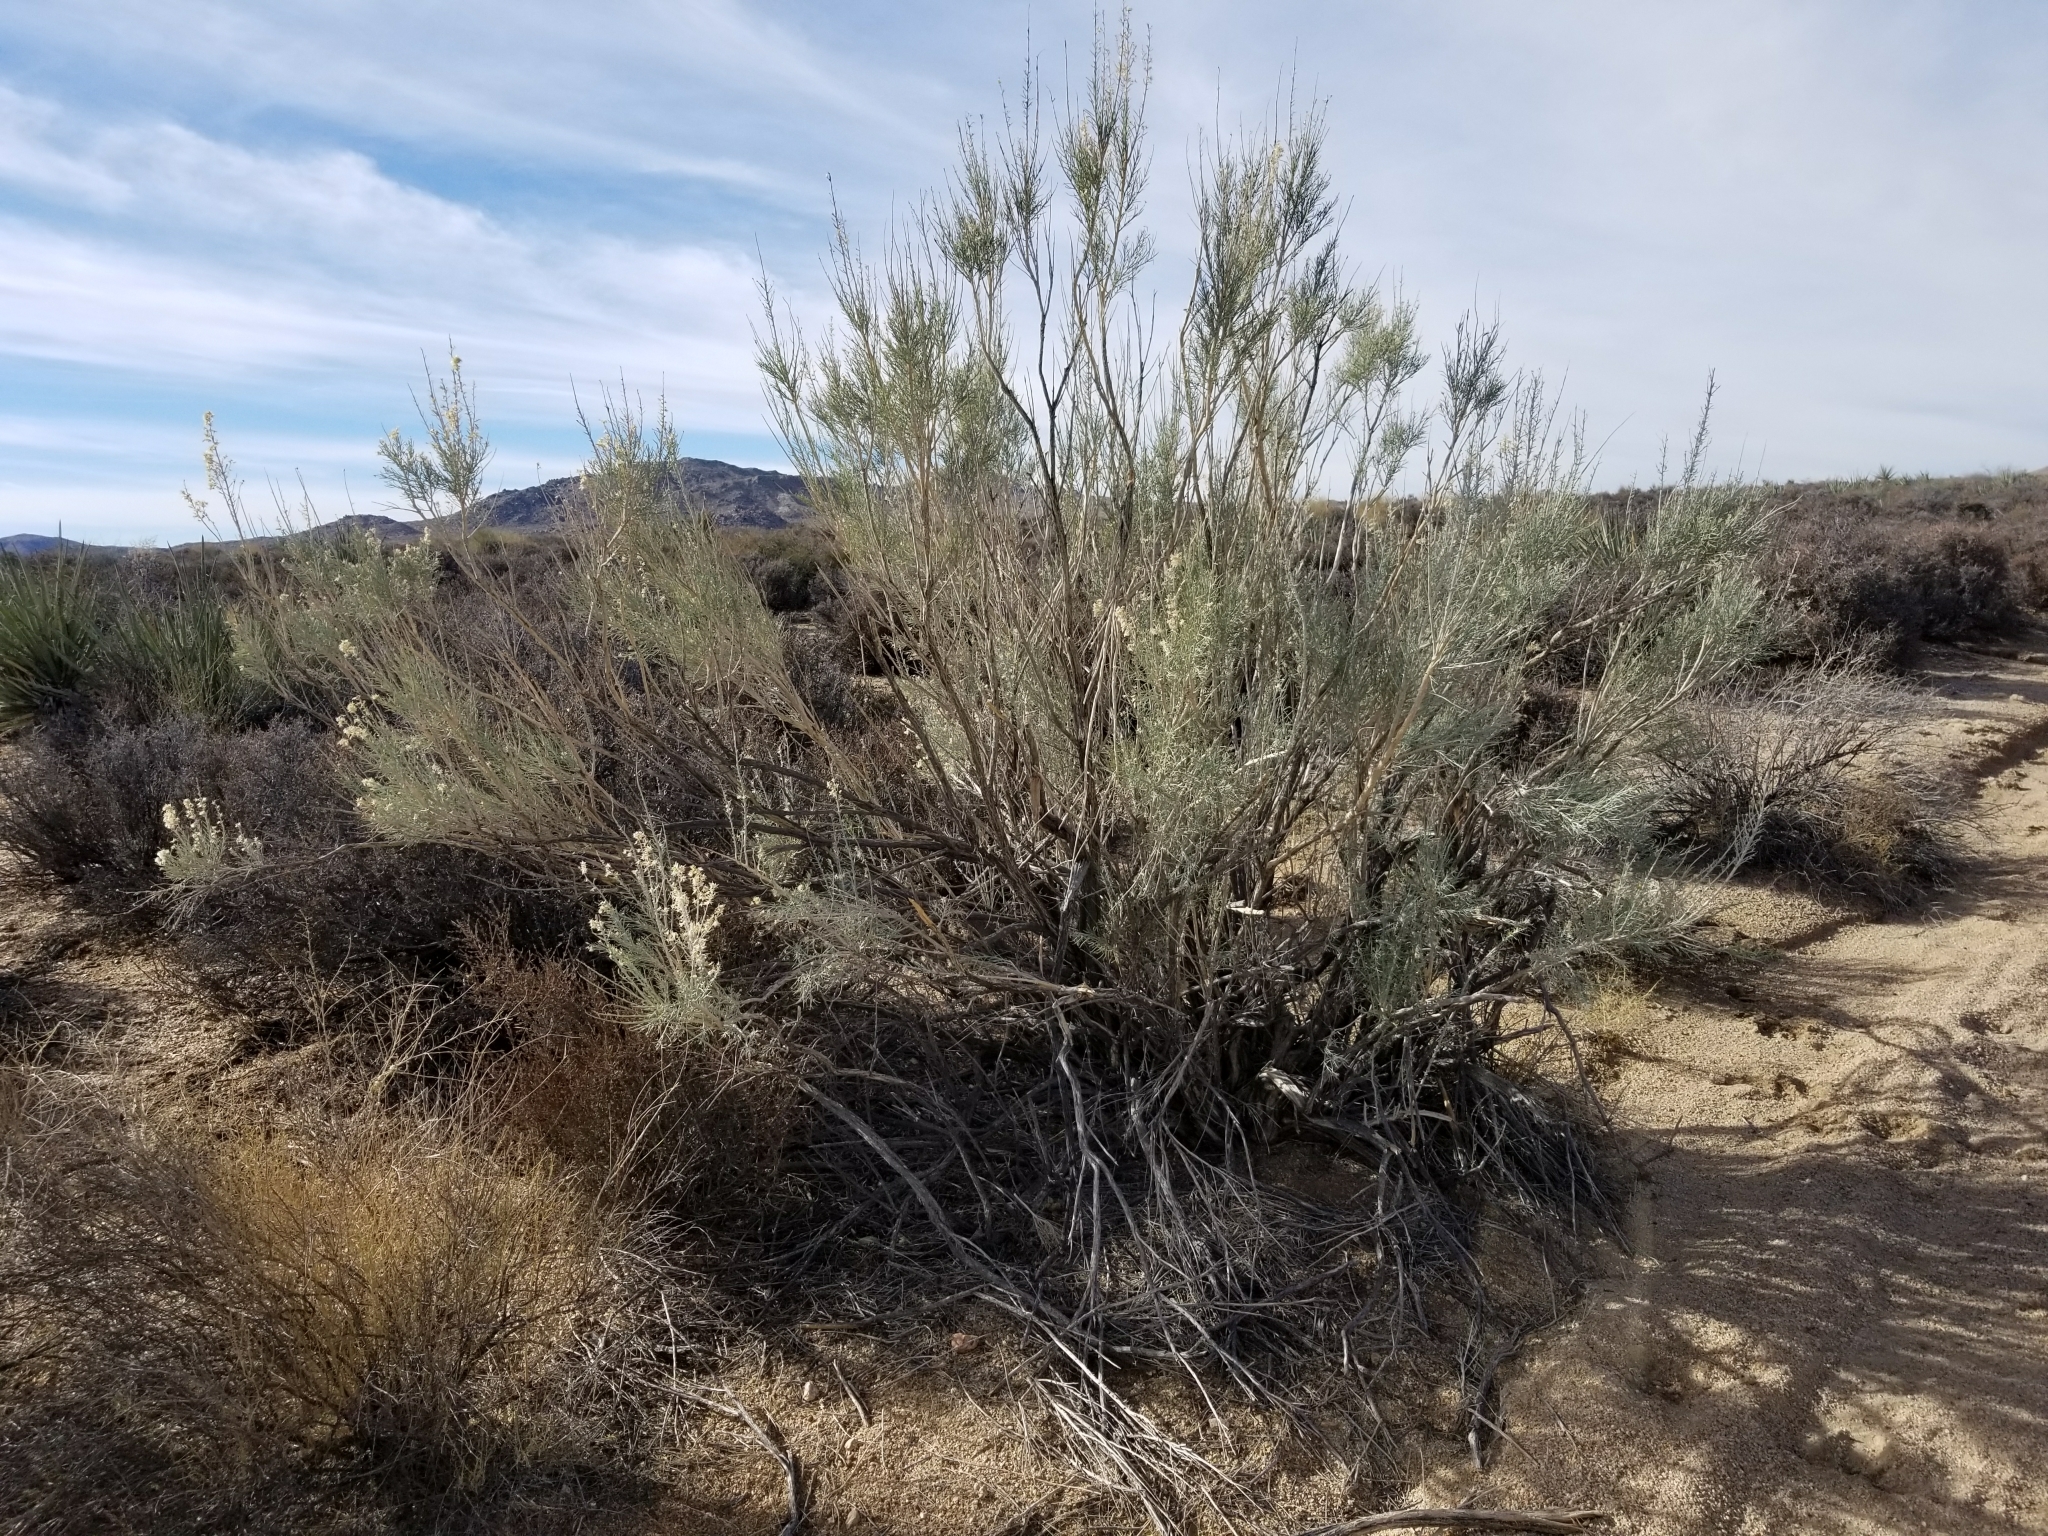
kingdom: Plantae
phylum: Tracheophyta
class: Magnoliopsida
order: Asterales
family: Asteraceae
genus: Baccharis
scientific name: Baccharis sarothroides
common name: Desert-broom
